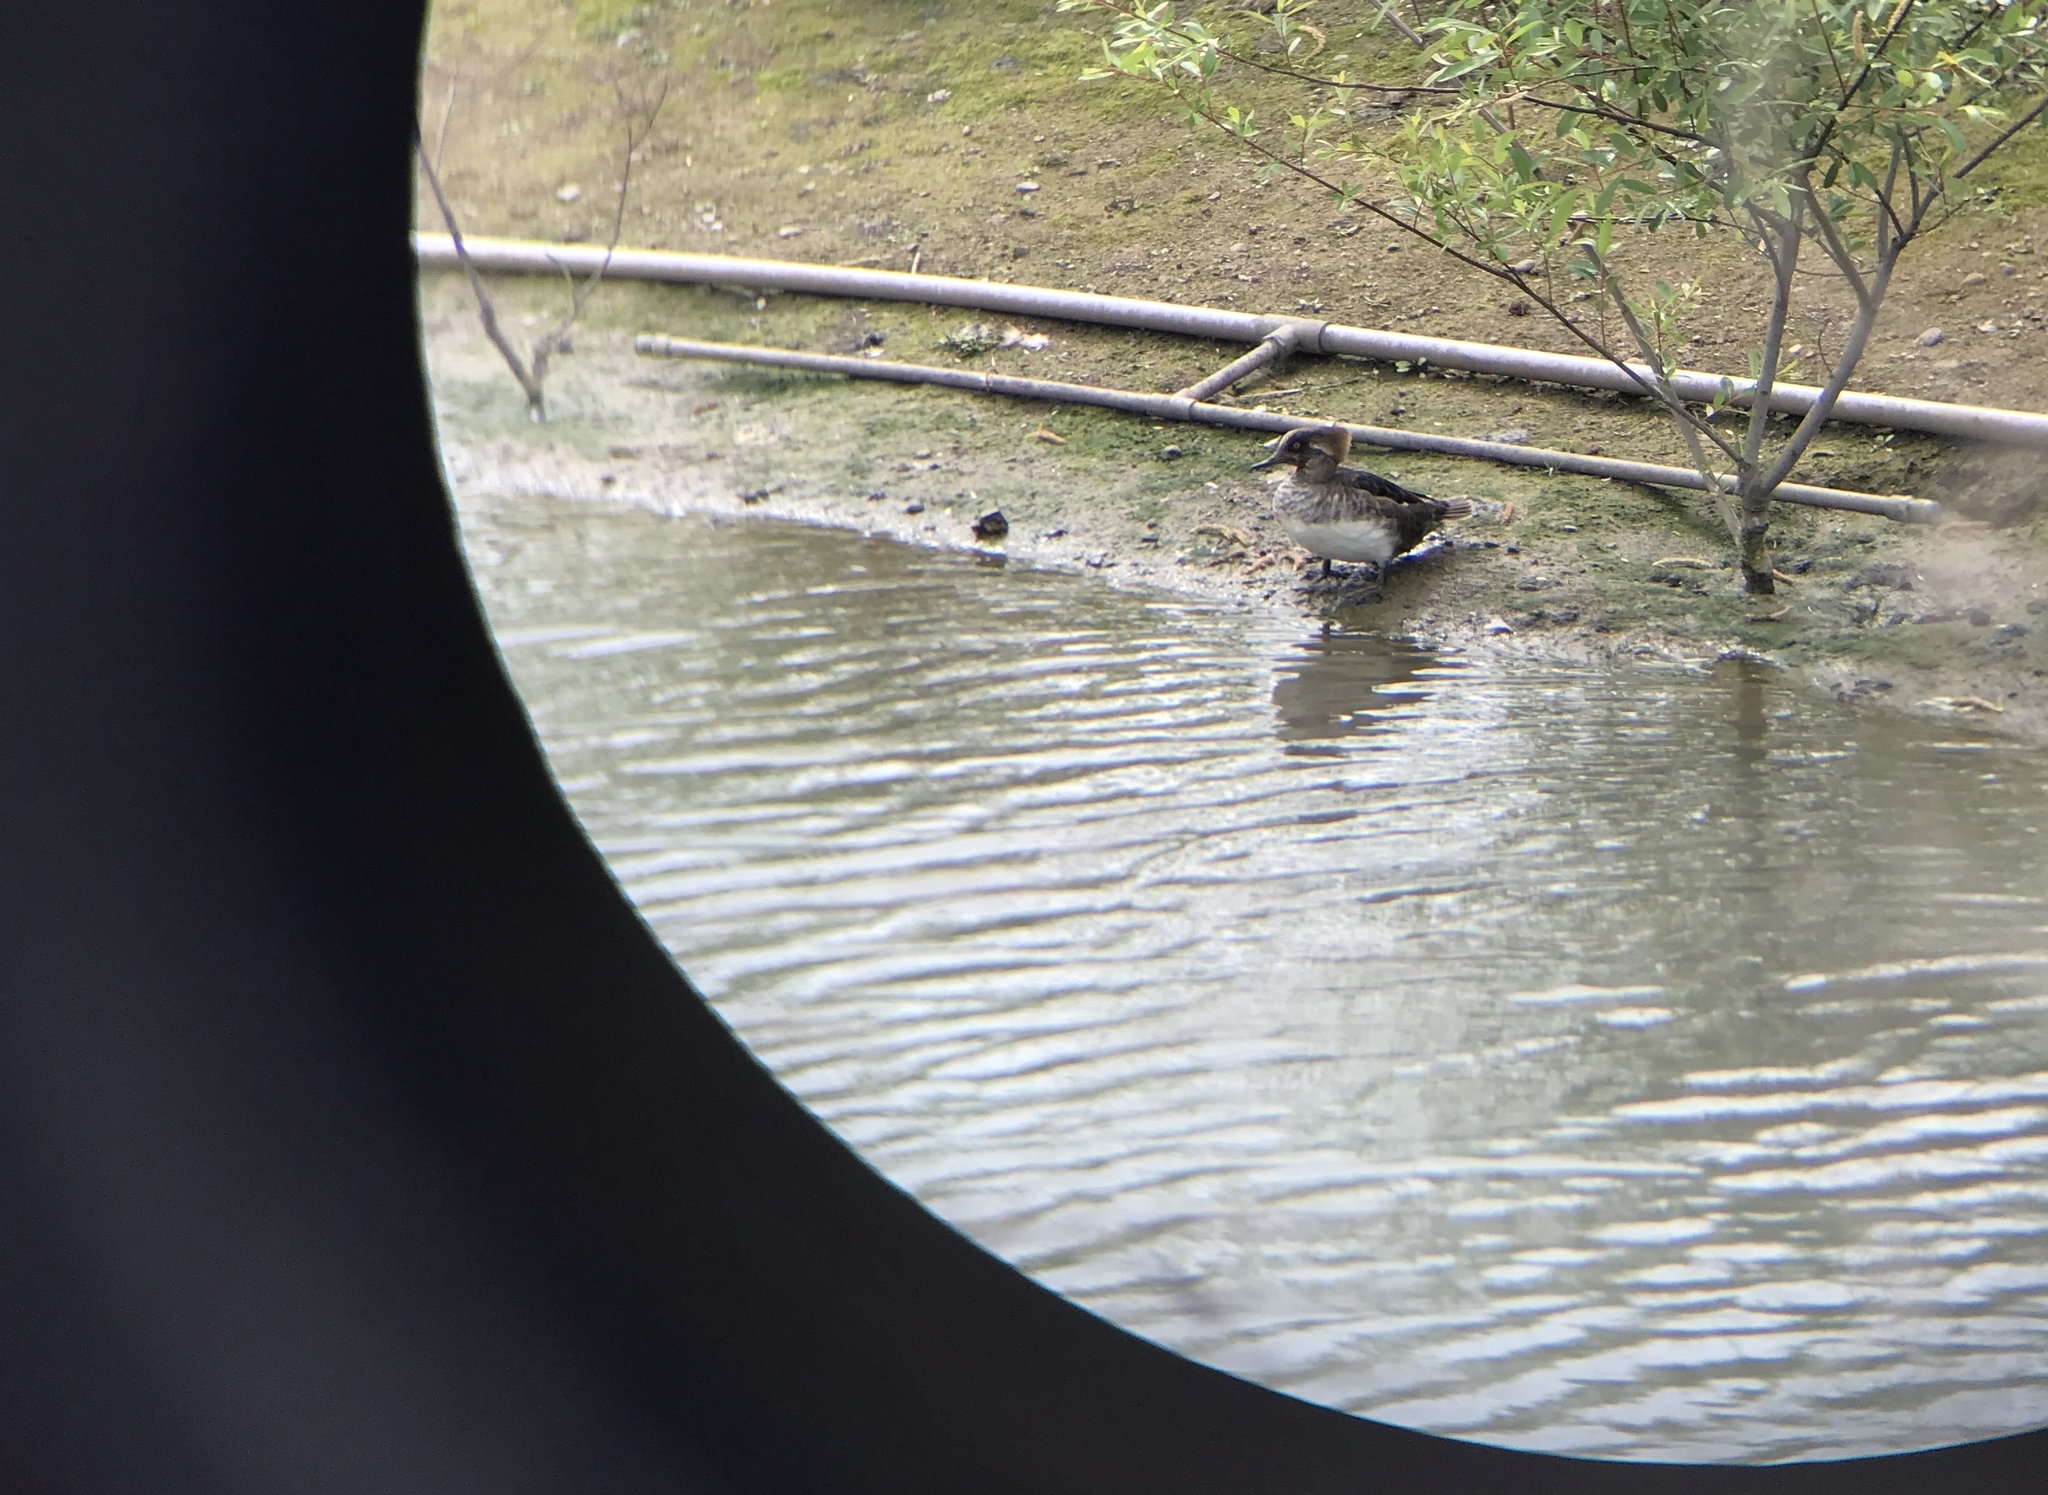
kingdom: Animalia
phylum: Chordata
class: Aves
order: Anseriformes
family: Anatidae
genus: Lophodytes
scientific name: Lophodytes cucullatus
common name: Hooded merganser
